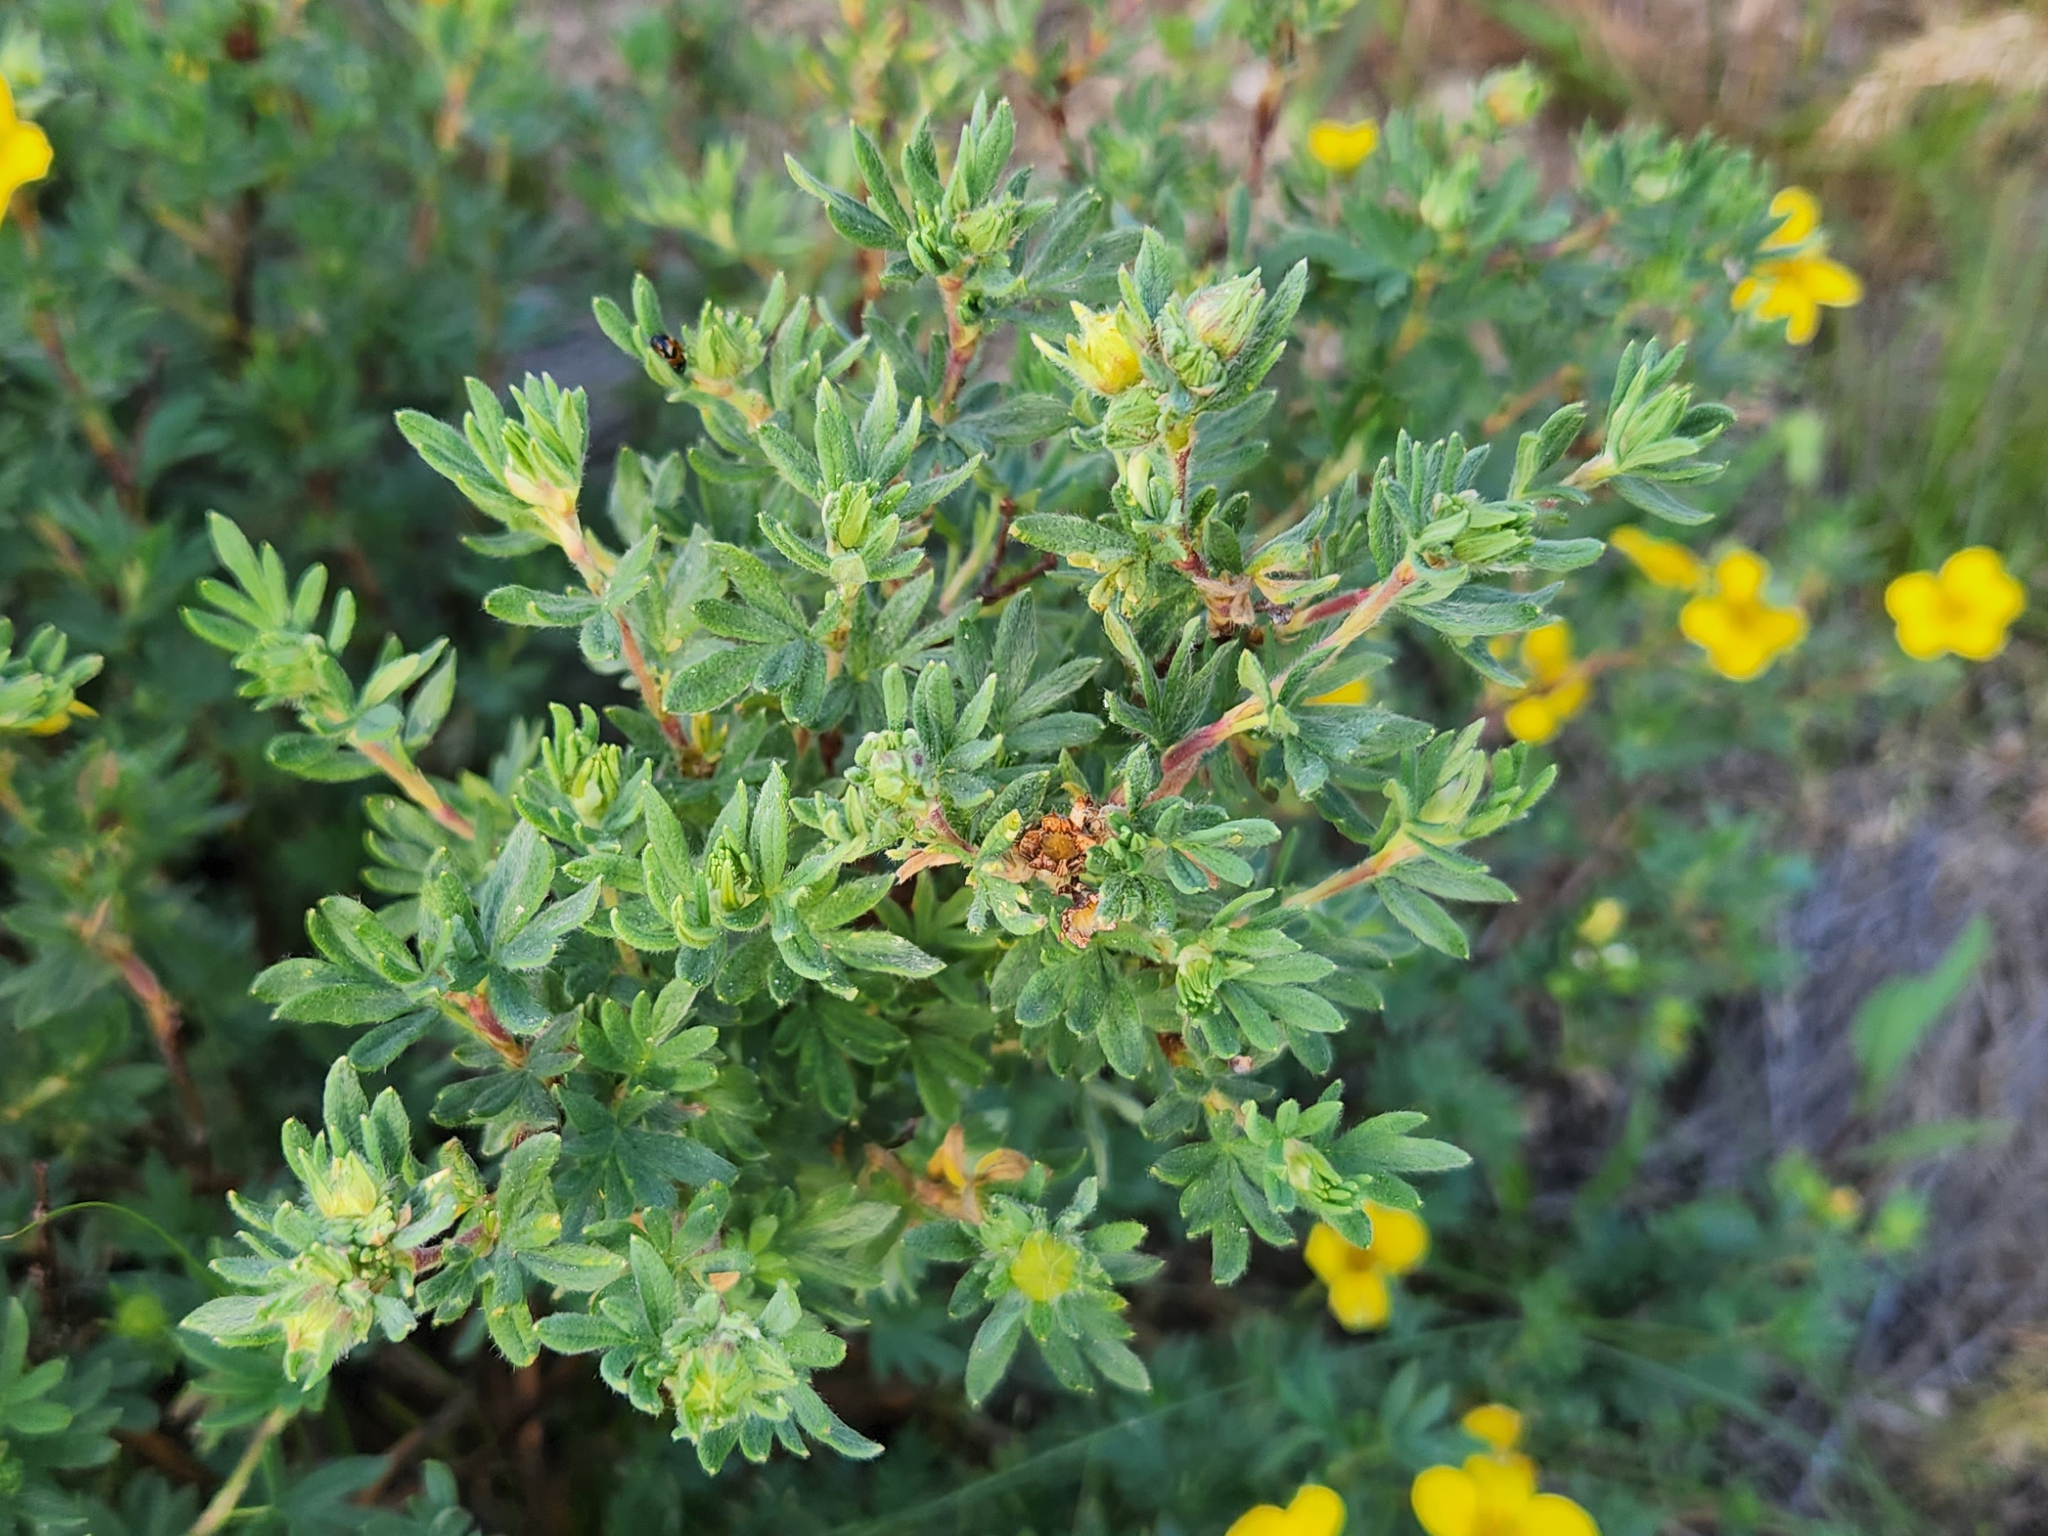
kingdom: Plantae
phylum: Tracheophyta
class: Magnoliopsida
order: Rosales
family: Rosaceae
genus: Dasiphora
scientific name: Dasiphora fruticosa
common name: Shrubby cinquefoil
